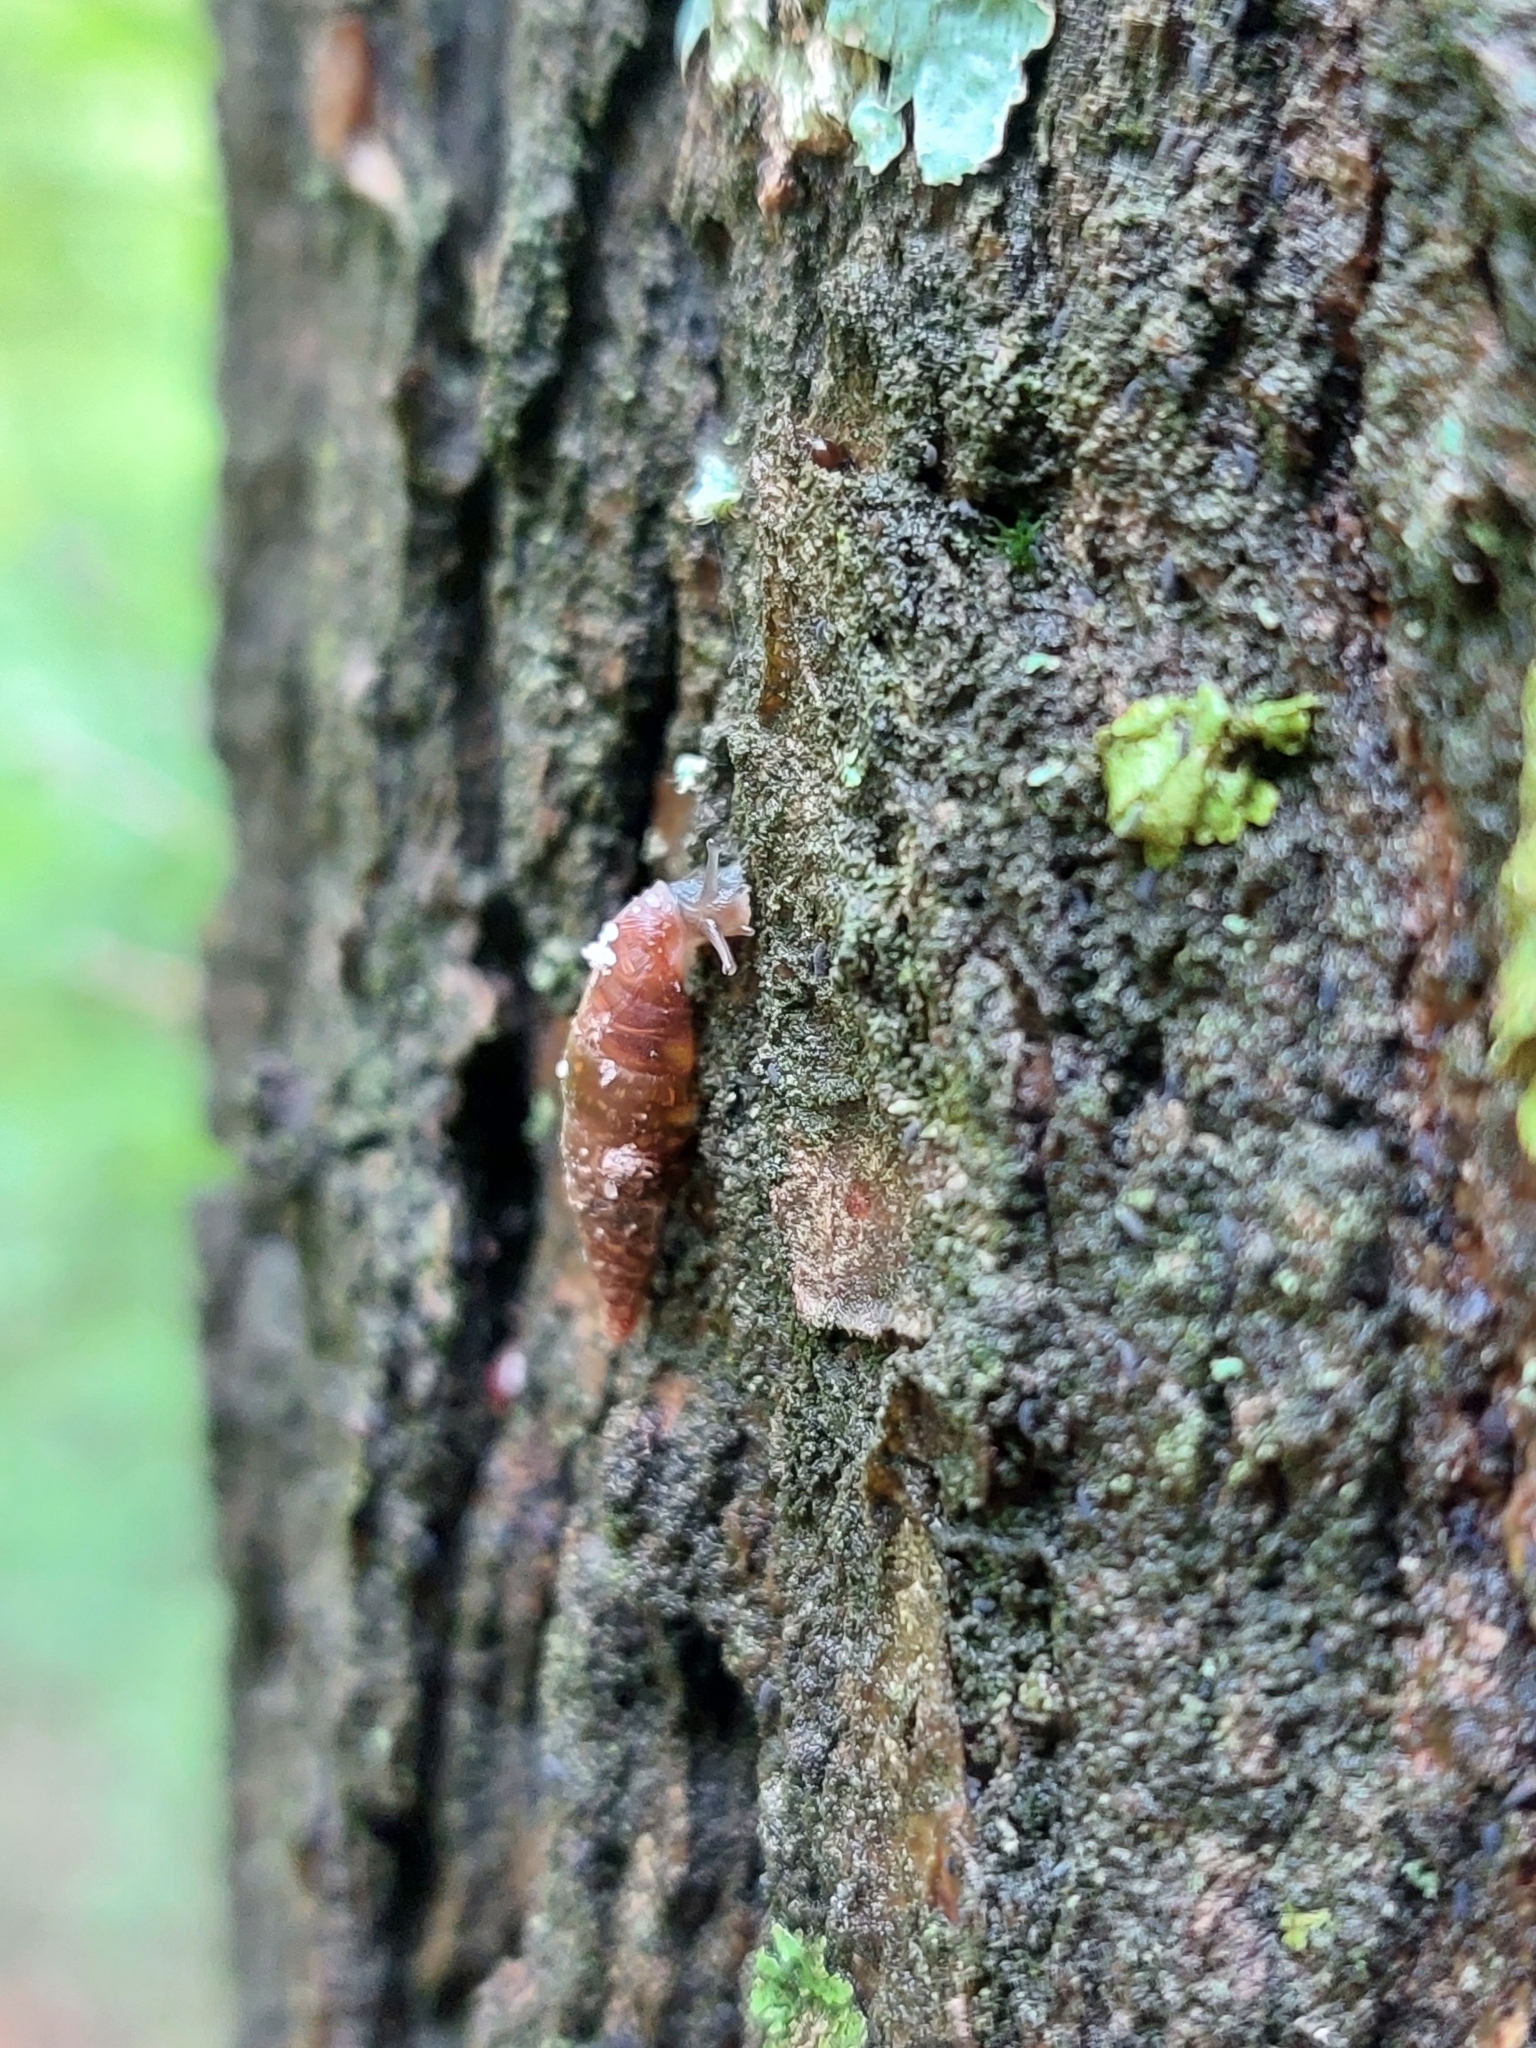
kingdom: Animalia
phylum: Mollusca
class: Gastropoda
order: Stylommatophora
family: Clausiliidae
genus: Cochlodina
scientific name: Cochlodina laminata
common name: Plaited door snail
